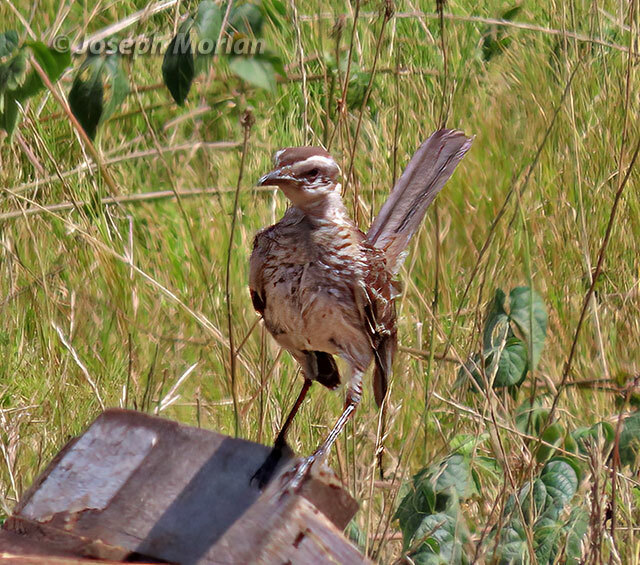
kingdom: Animalia
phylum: Chordata
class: Aves
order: Passeriformes
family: Mimidae
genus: Mimus
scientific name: Mimus saturninus
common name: Chalk-browed mockingbird
